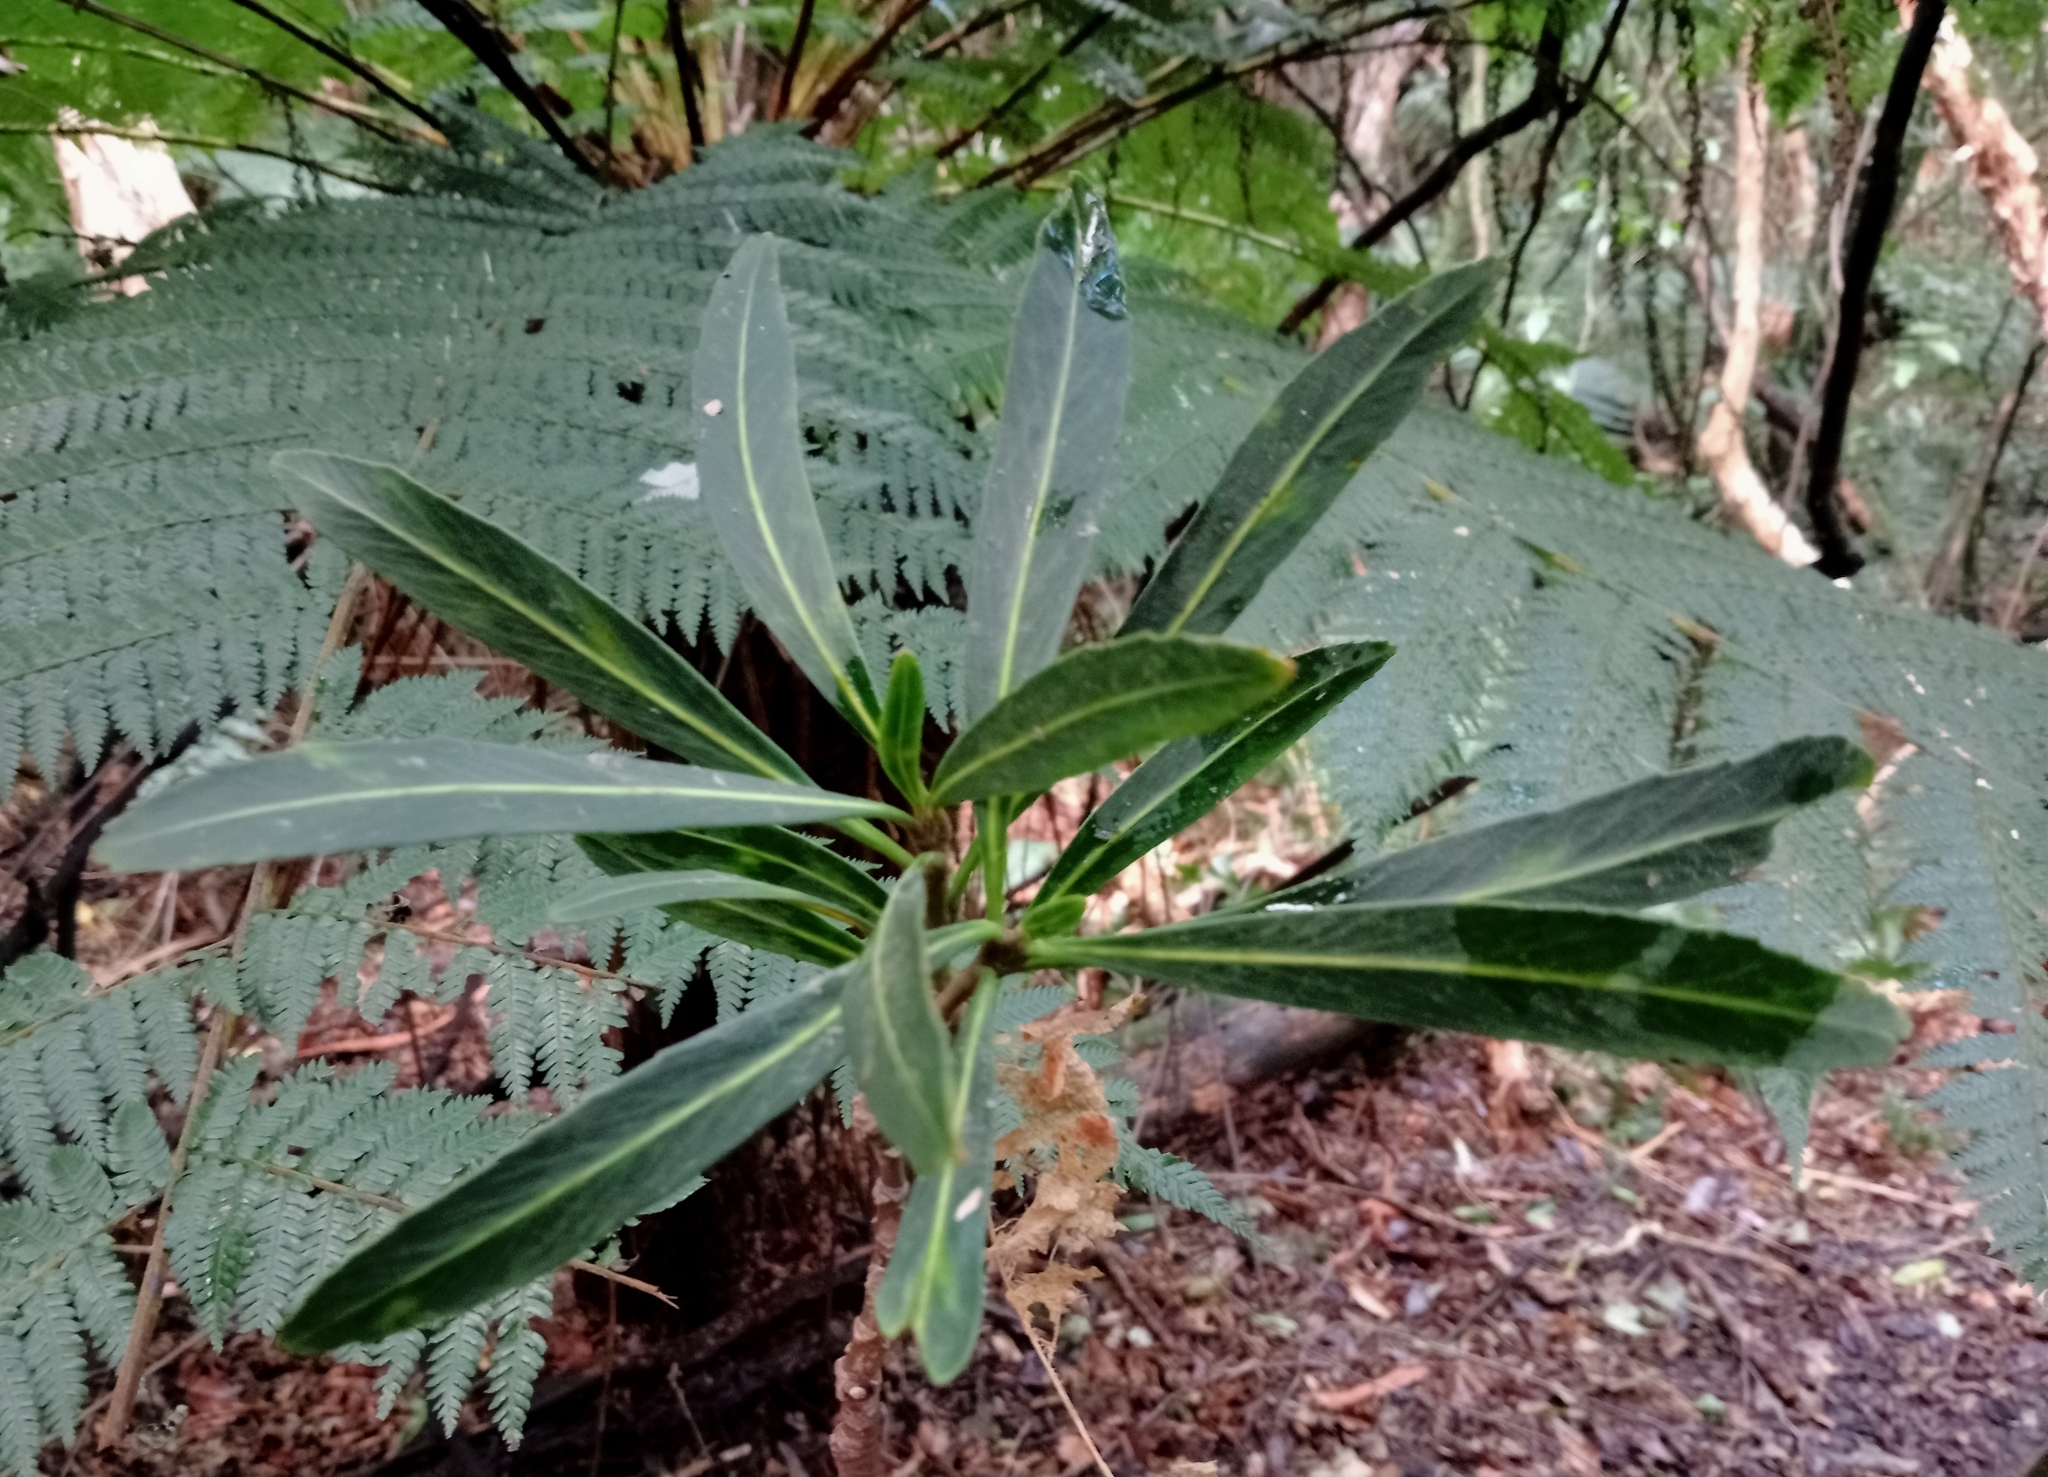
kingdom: Plantae
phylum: Tracheophyta
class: Magnoliopsida
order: Apiales
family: Araliaceae
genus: Pseudopanax
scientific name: Pseudopanax crassifolius
